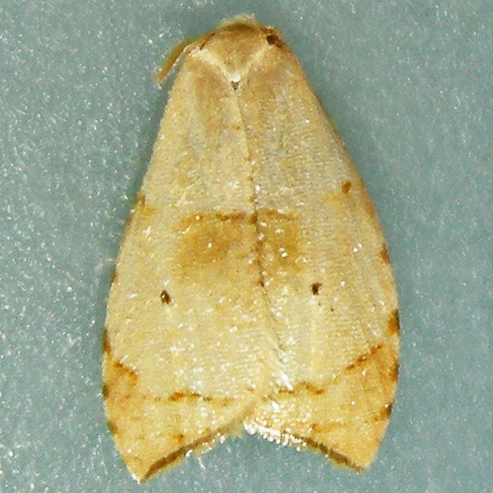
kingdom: Animalia
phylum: Arthropoda
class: Insecta
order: Lepidoptera
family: Tortricidae
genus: Coelostathma
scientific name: Coelostathma discopunctana
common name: Batman moth
